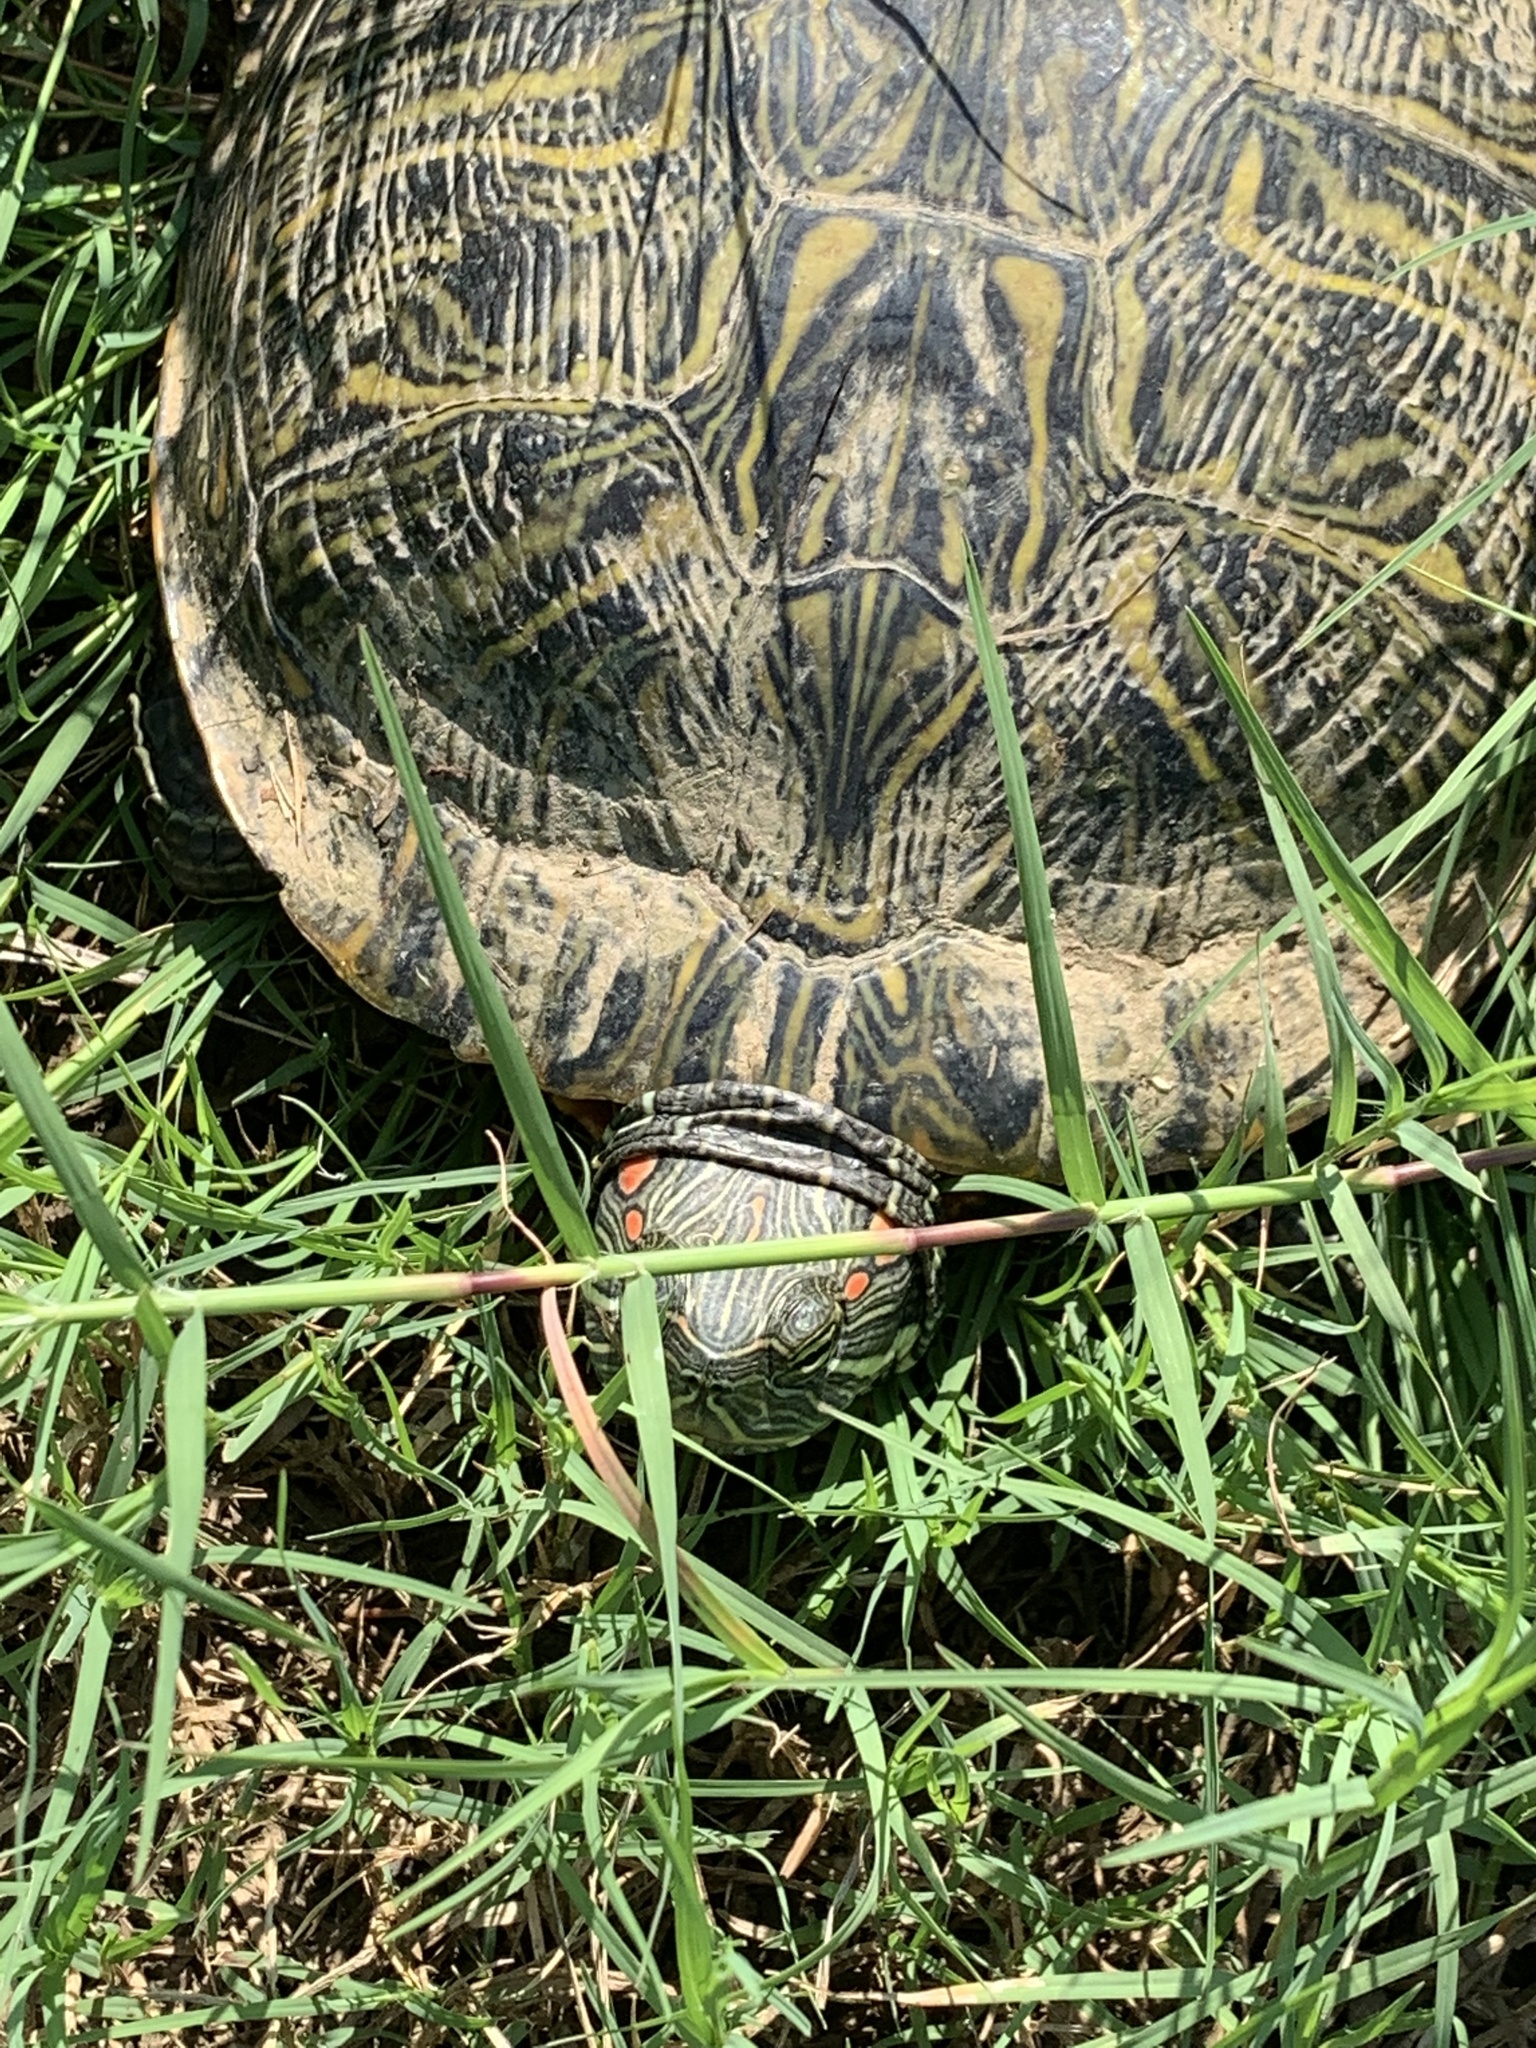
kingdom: Animalia
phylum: Chordata
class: Testudines
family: Emydidae
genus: Trachemys
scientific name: Trachemys scripta
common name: Slider
